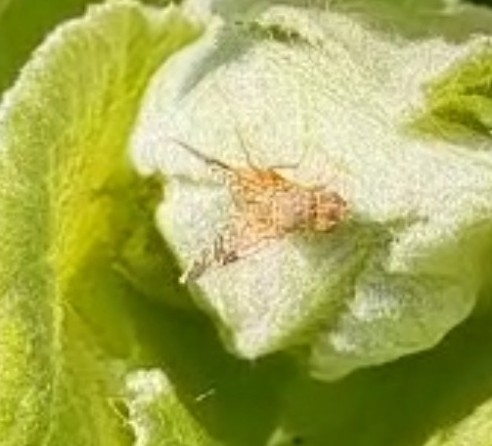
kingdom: Animalia
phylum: Arthropoda
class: Insecta
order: Diptera
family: Tephritidae
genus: Tephritis
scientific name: Tephritis bardanae
